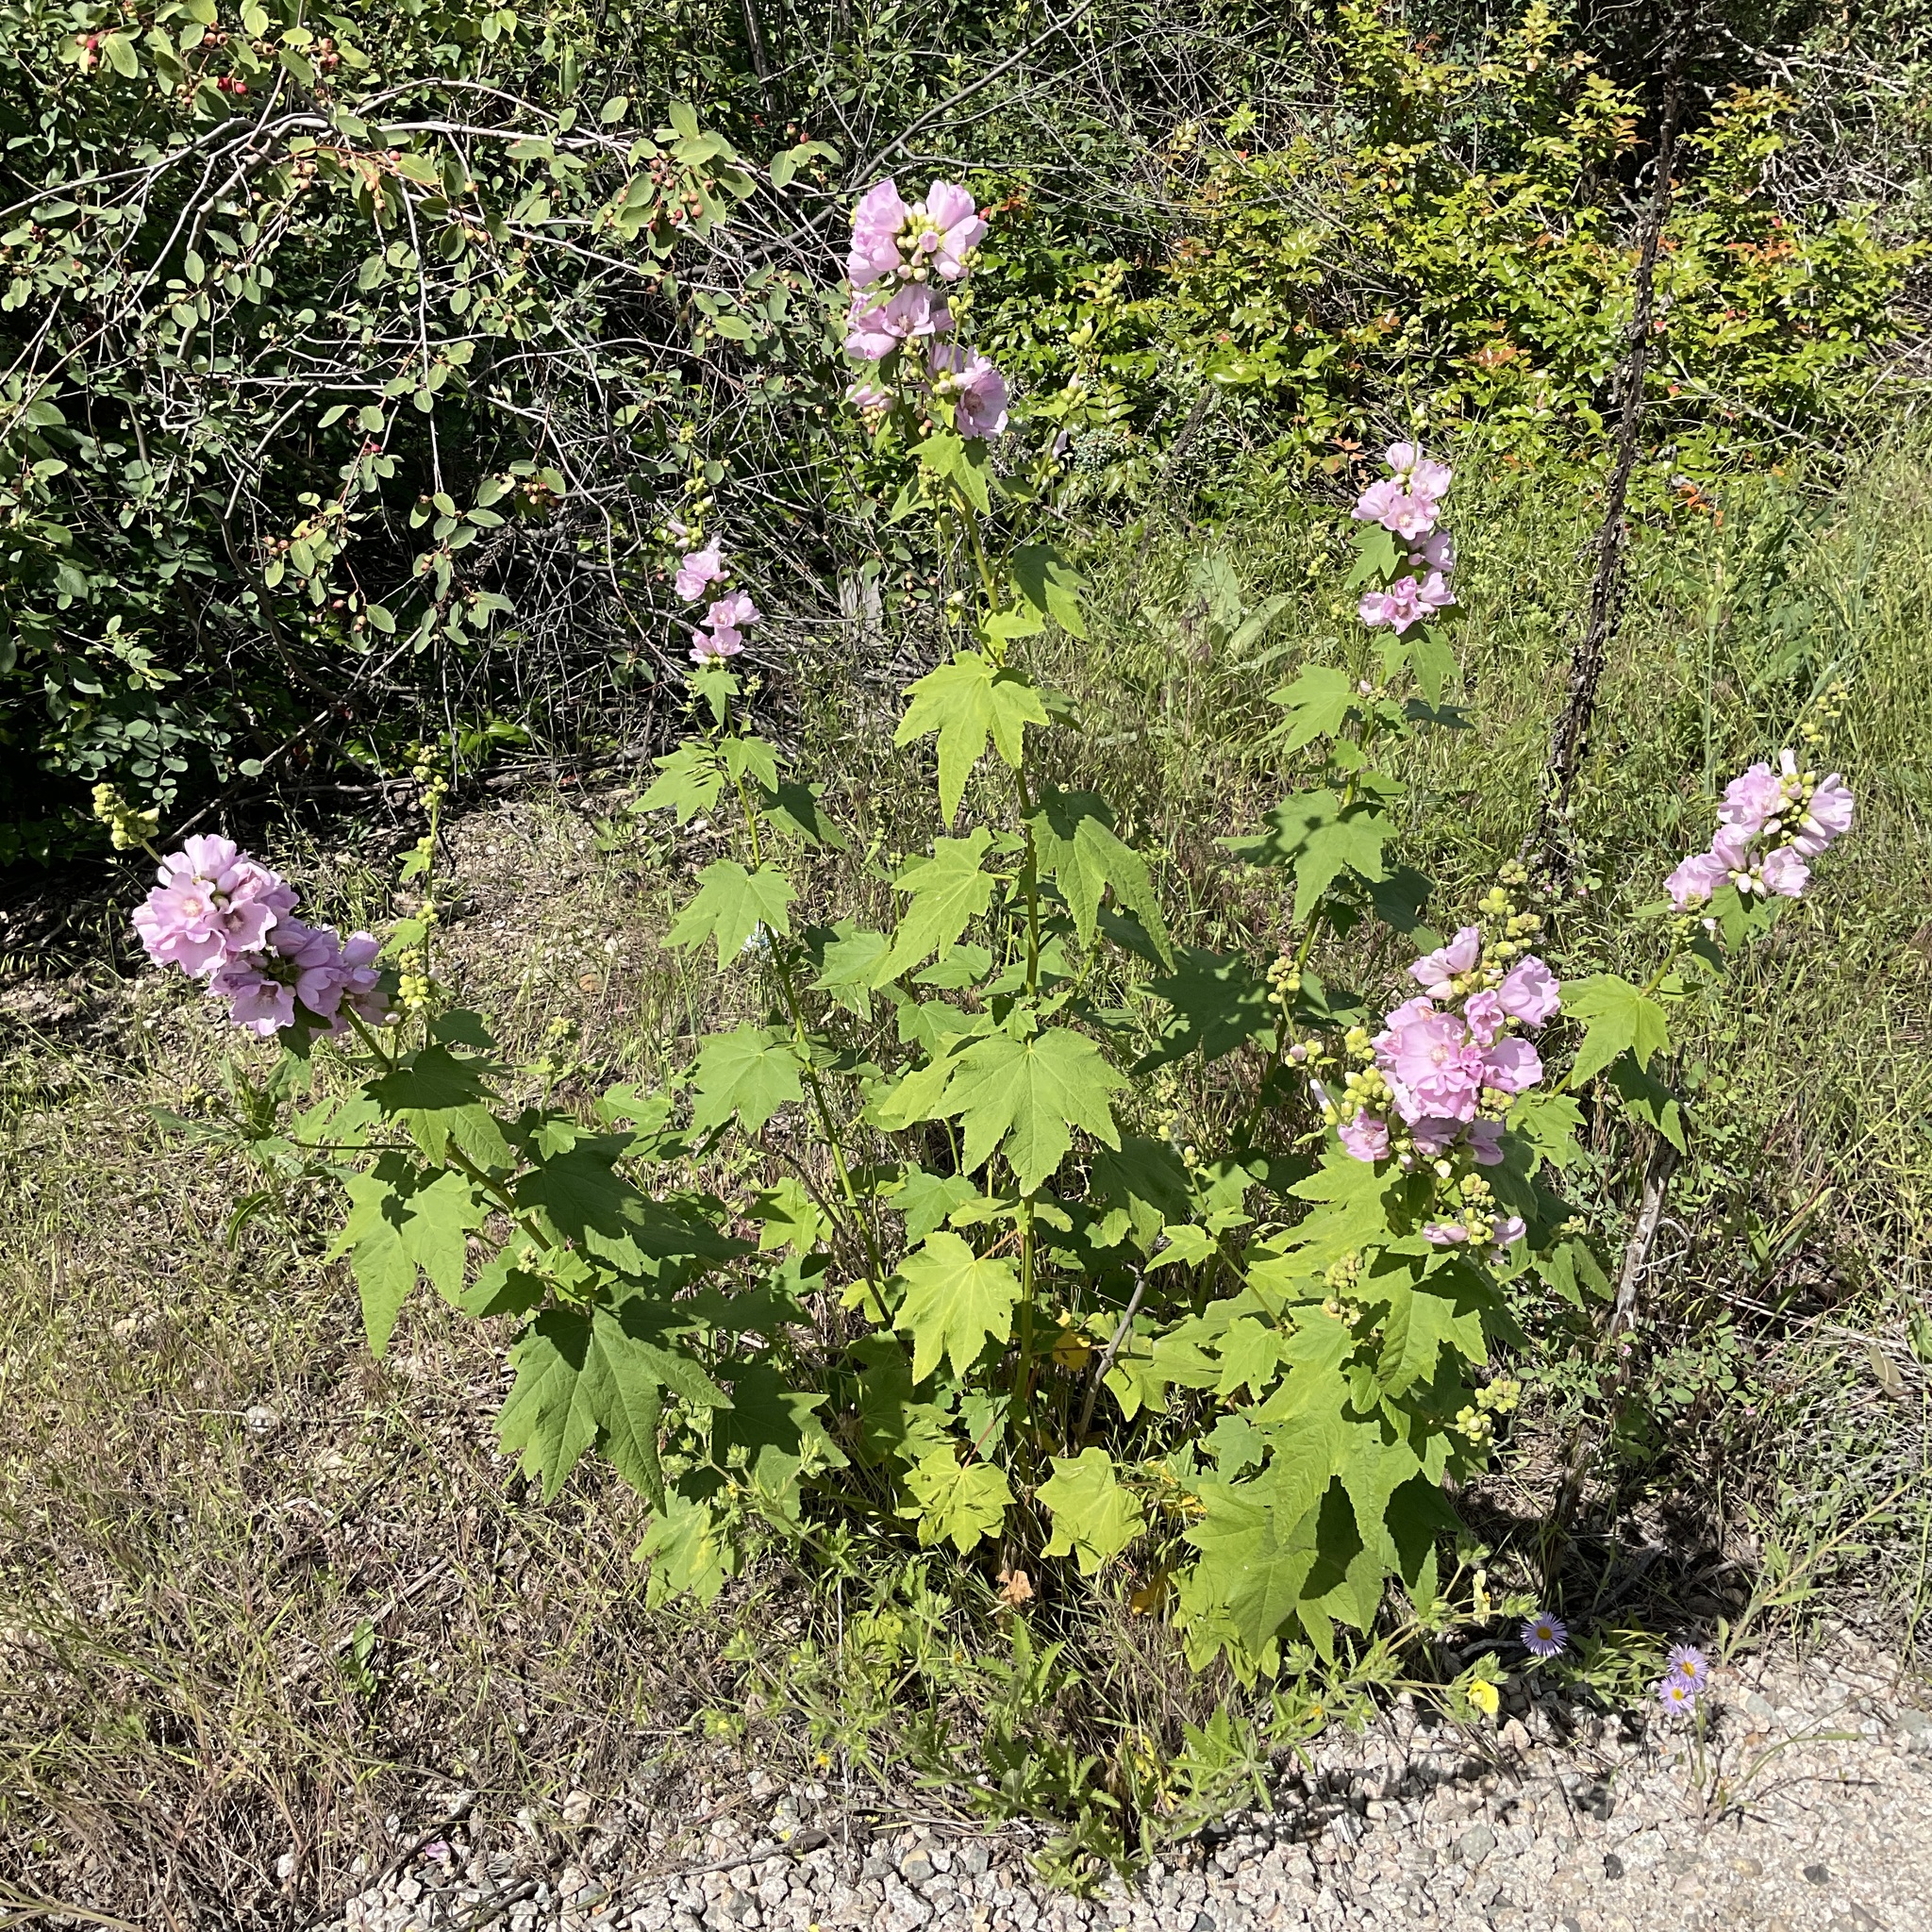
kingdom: Plantae
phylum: Tracheophyta
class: Magnoliopsida
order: Malvales
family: Malvaceae
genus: Iliamna
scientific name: Iliamna rivularis
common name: Wild hollyhock
